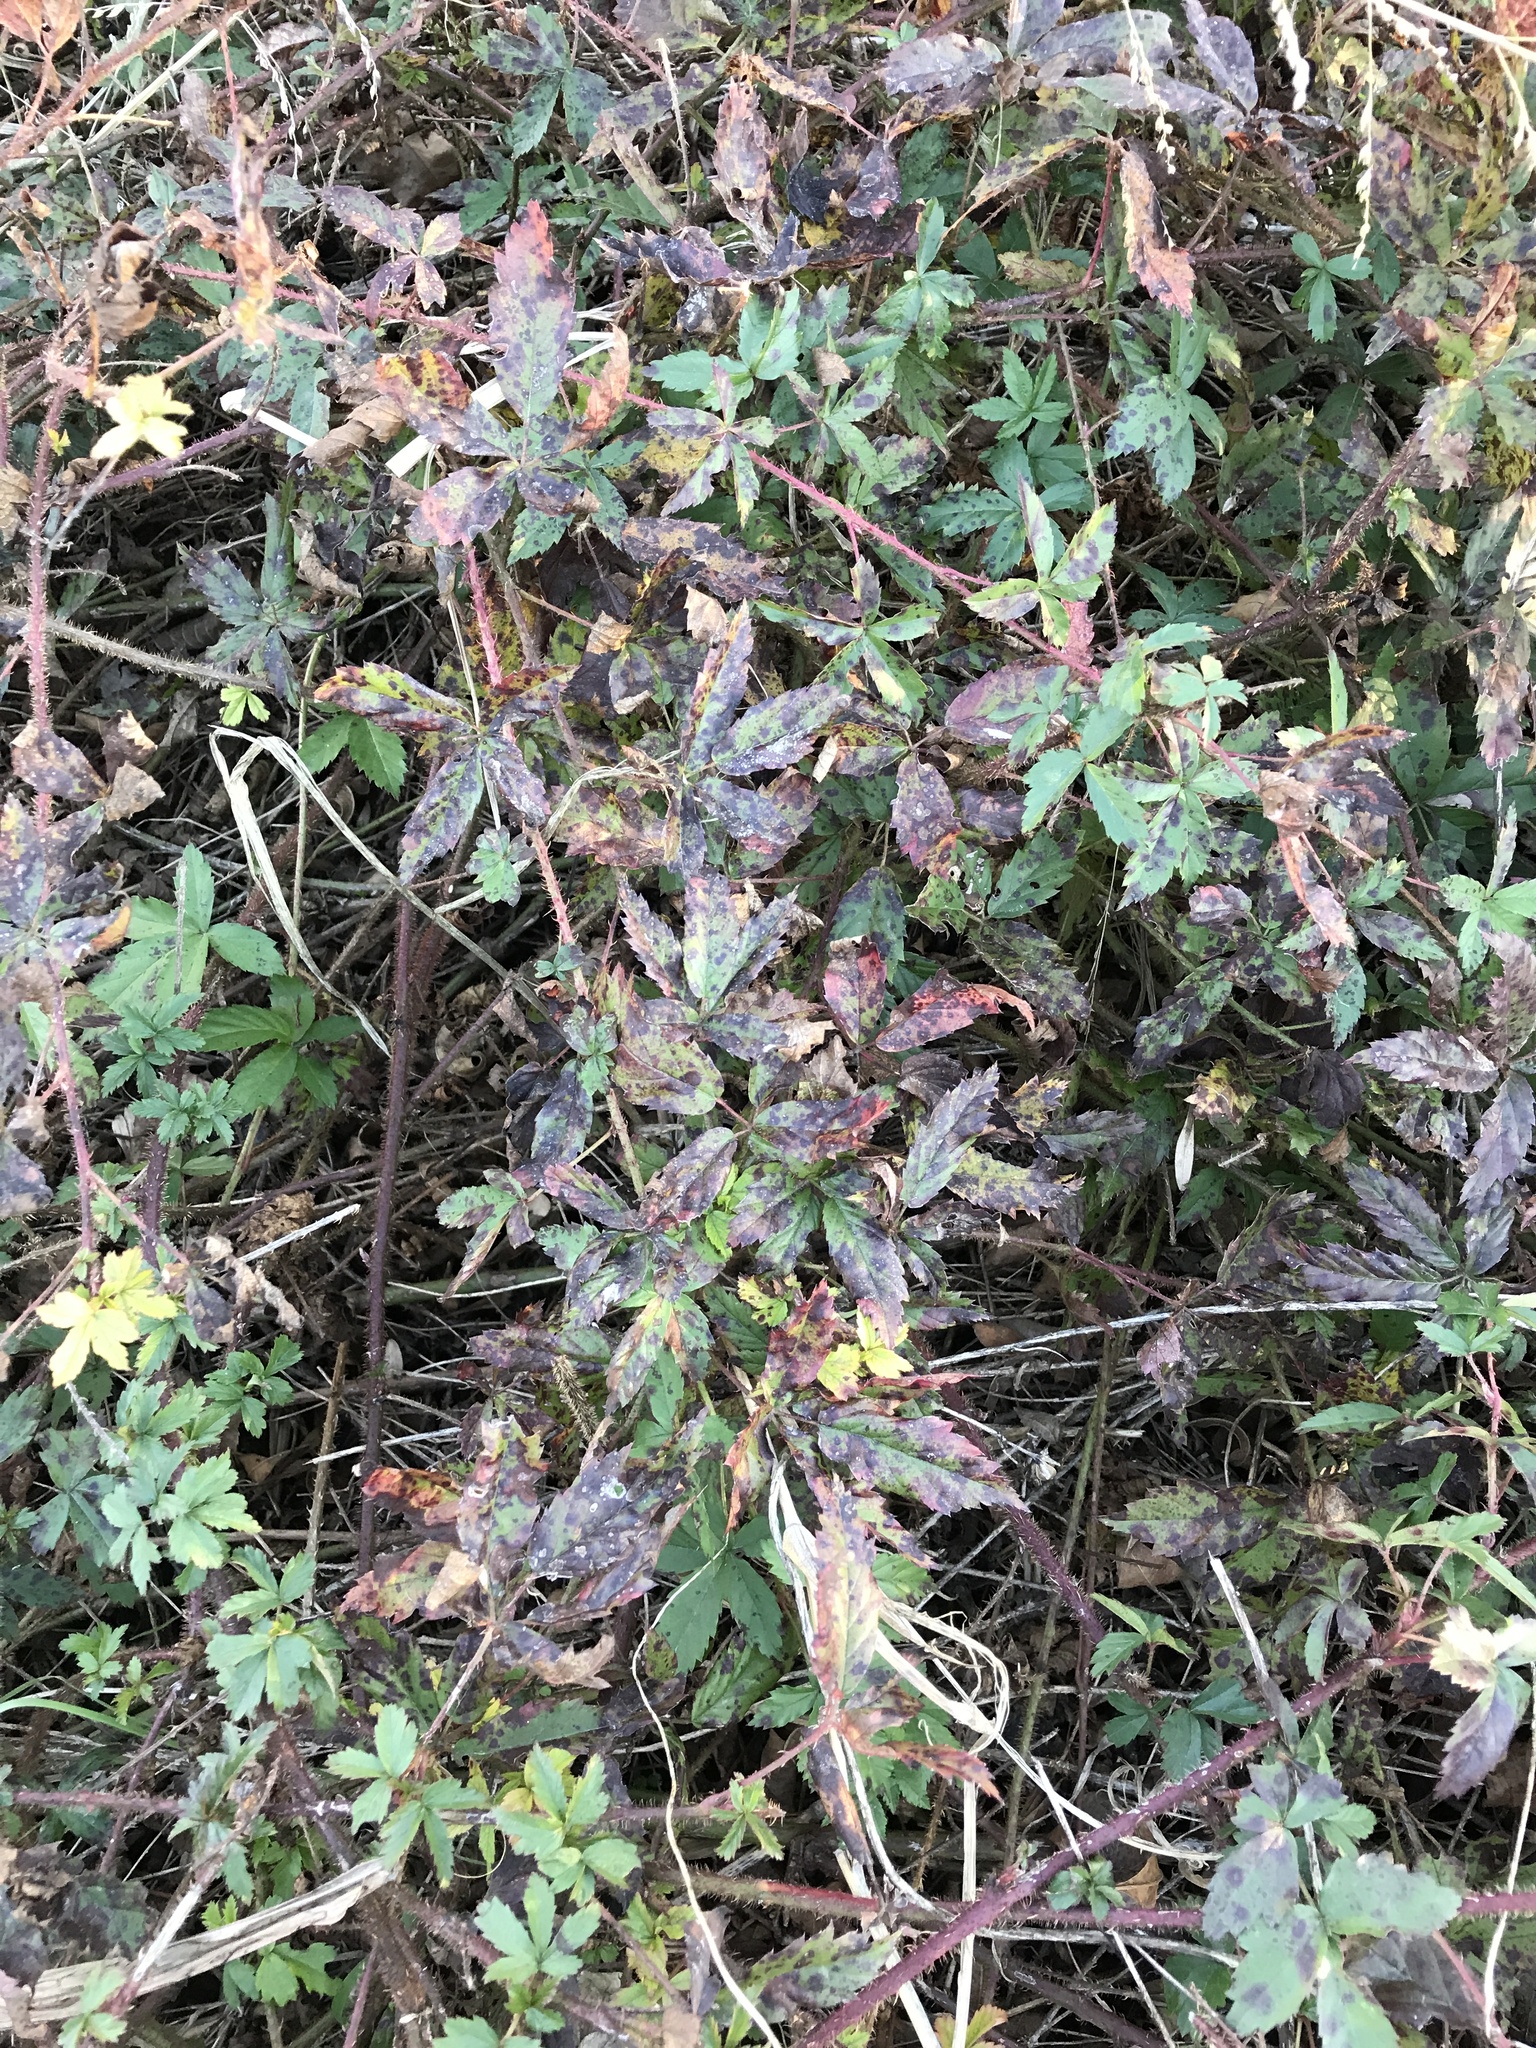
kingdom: Plantae
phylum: Tracheophyta
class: Magnoliopsida
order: Rosales
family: Rosaceae
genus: Rubus
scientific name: Rubus trivialis
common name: Southern dewberry
